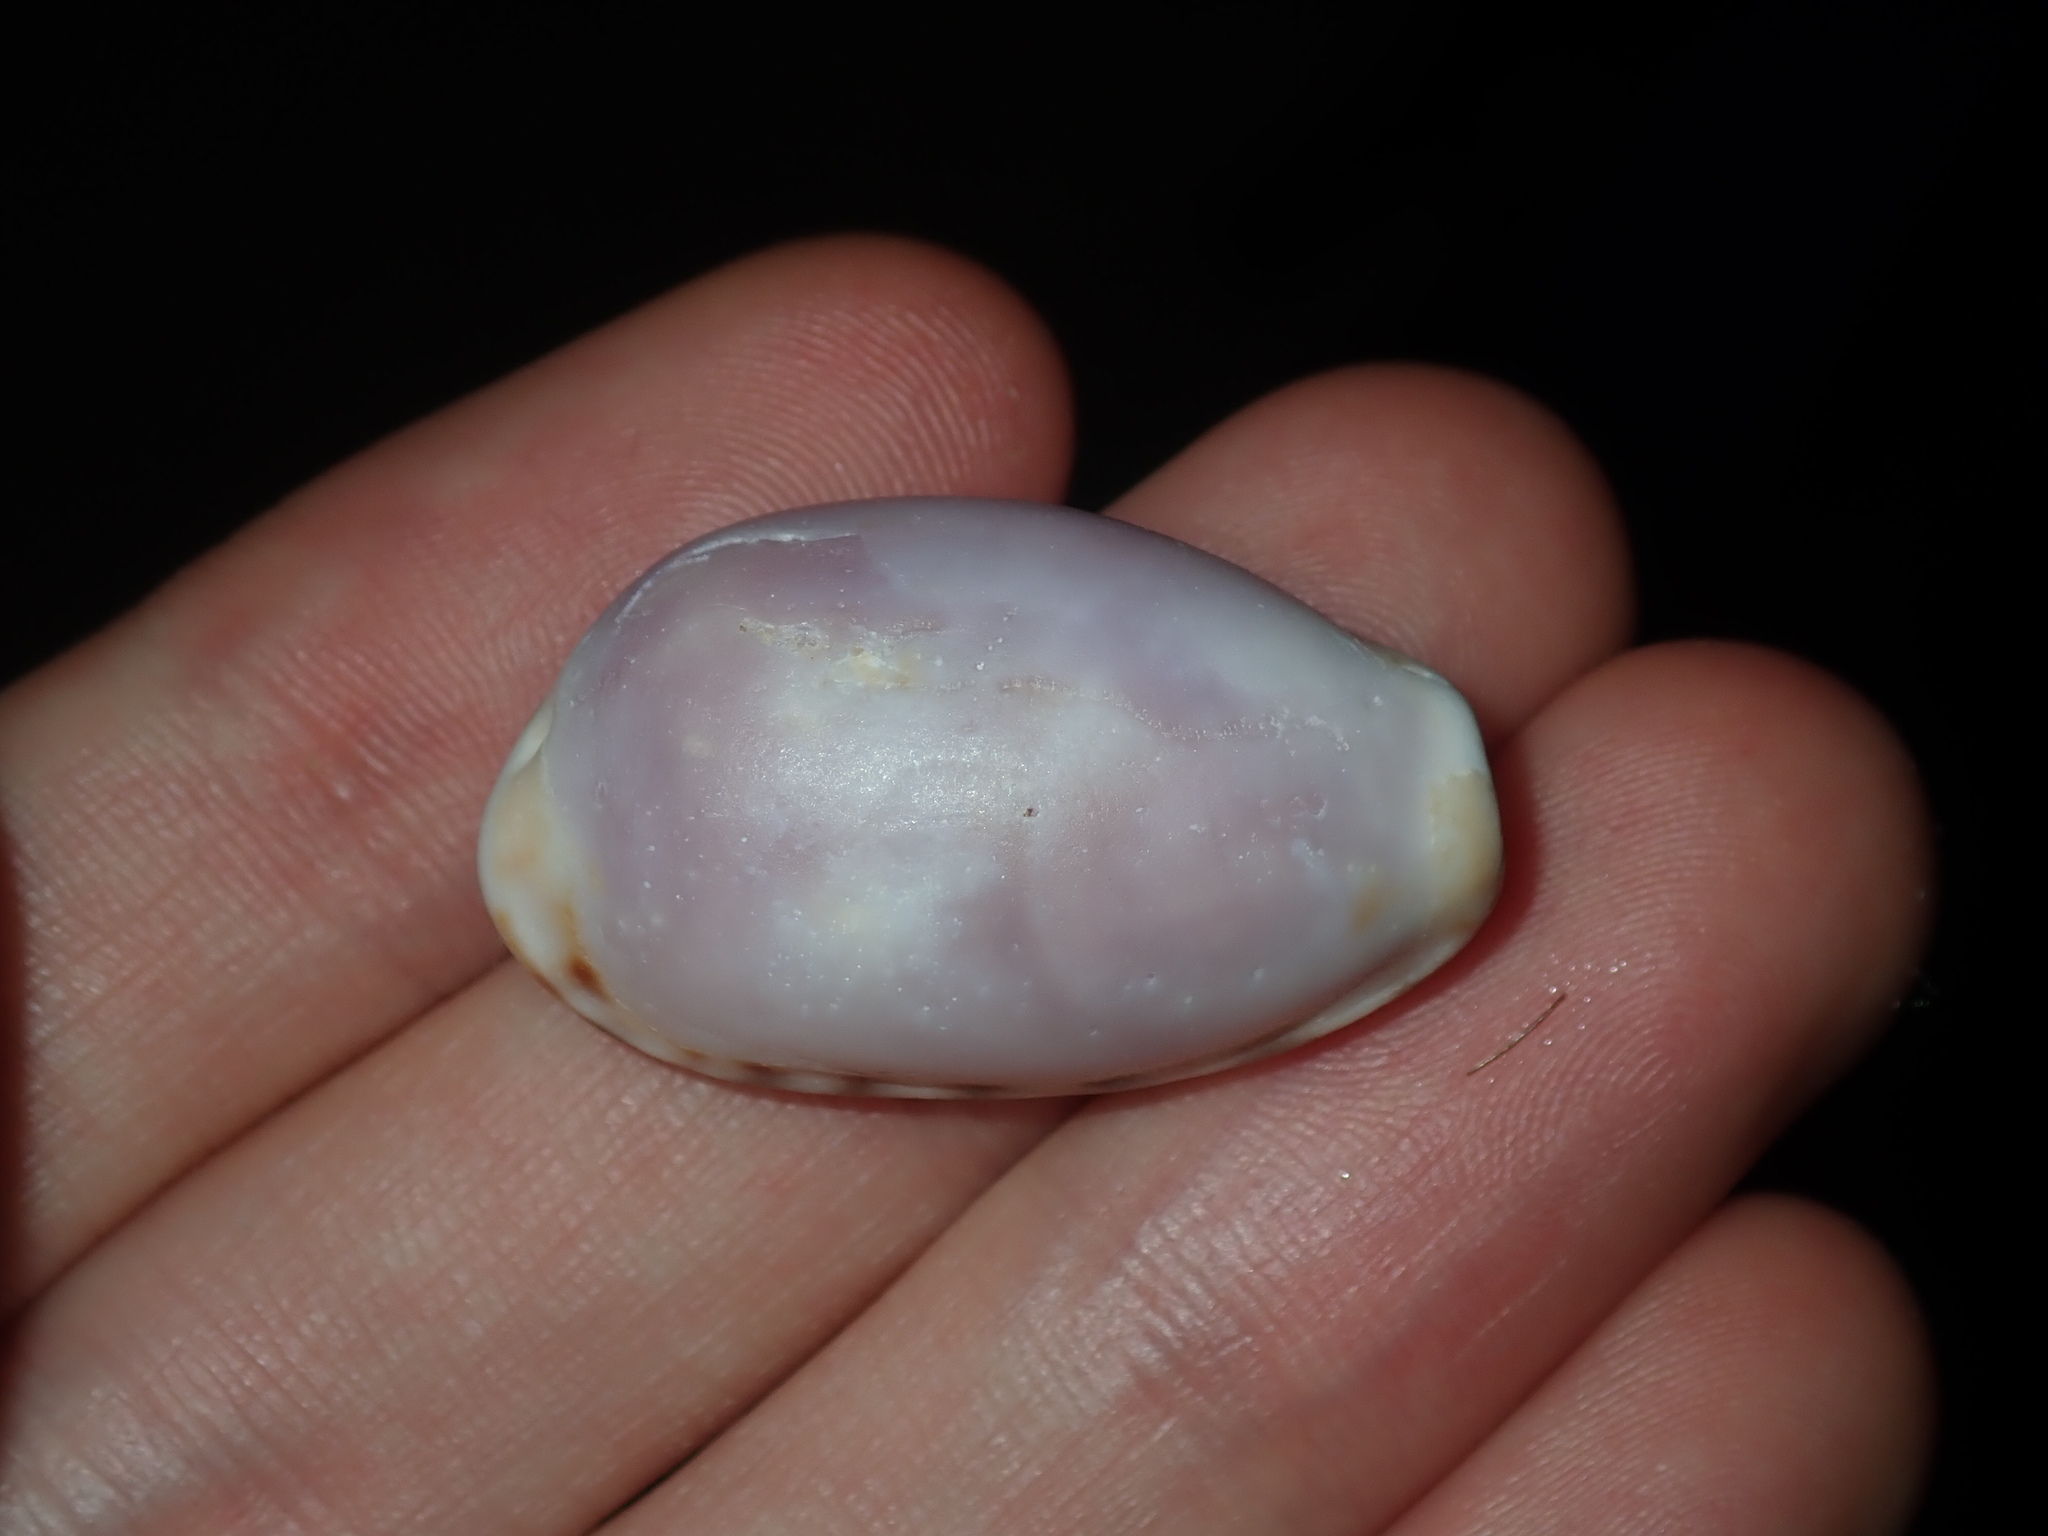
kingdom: Animalia
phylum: Mollusca
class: Gastropoda
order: Littorinimorpha
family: Cypraeidae
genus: Talostolida
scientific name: Talostolida pellucens
